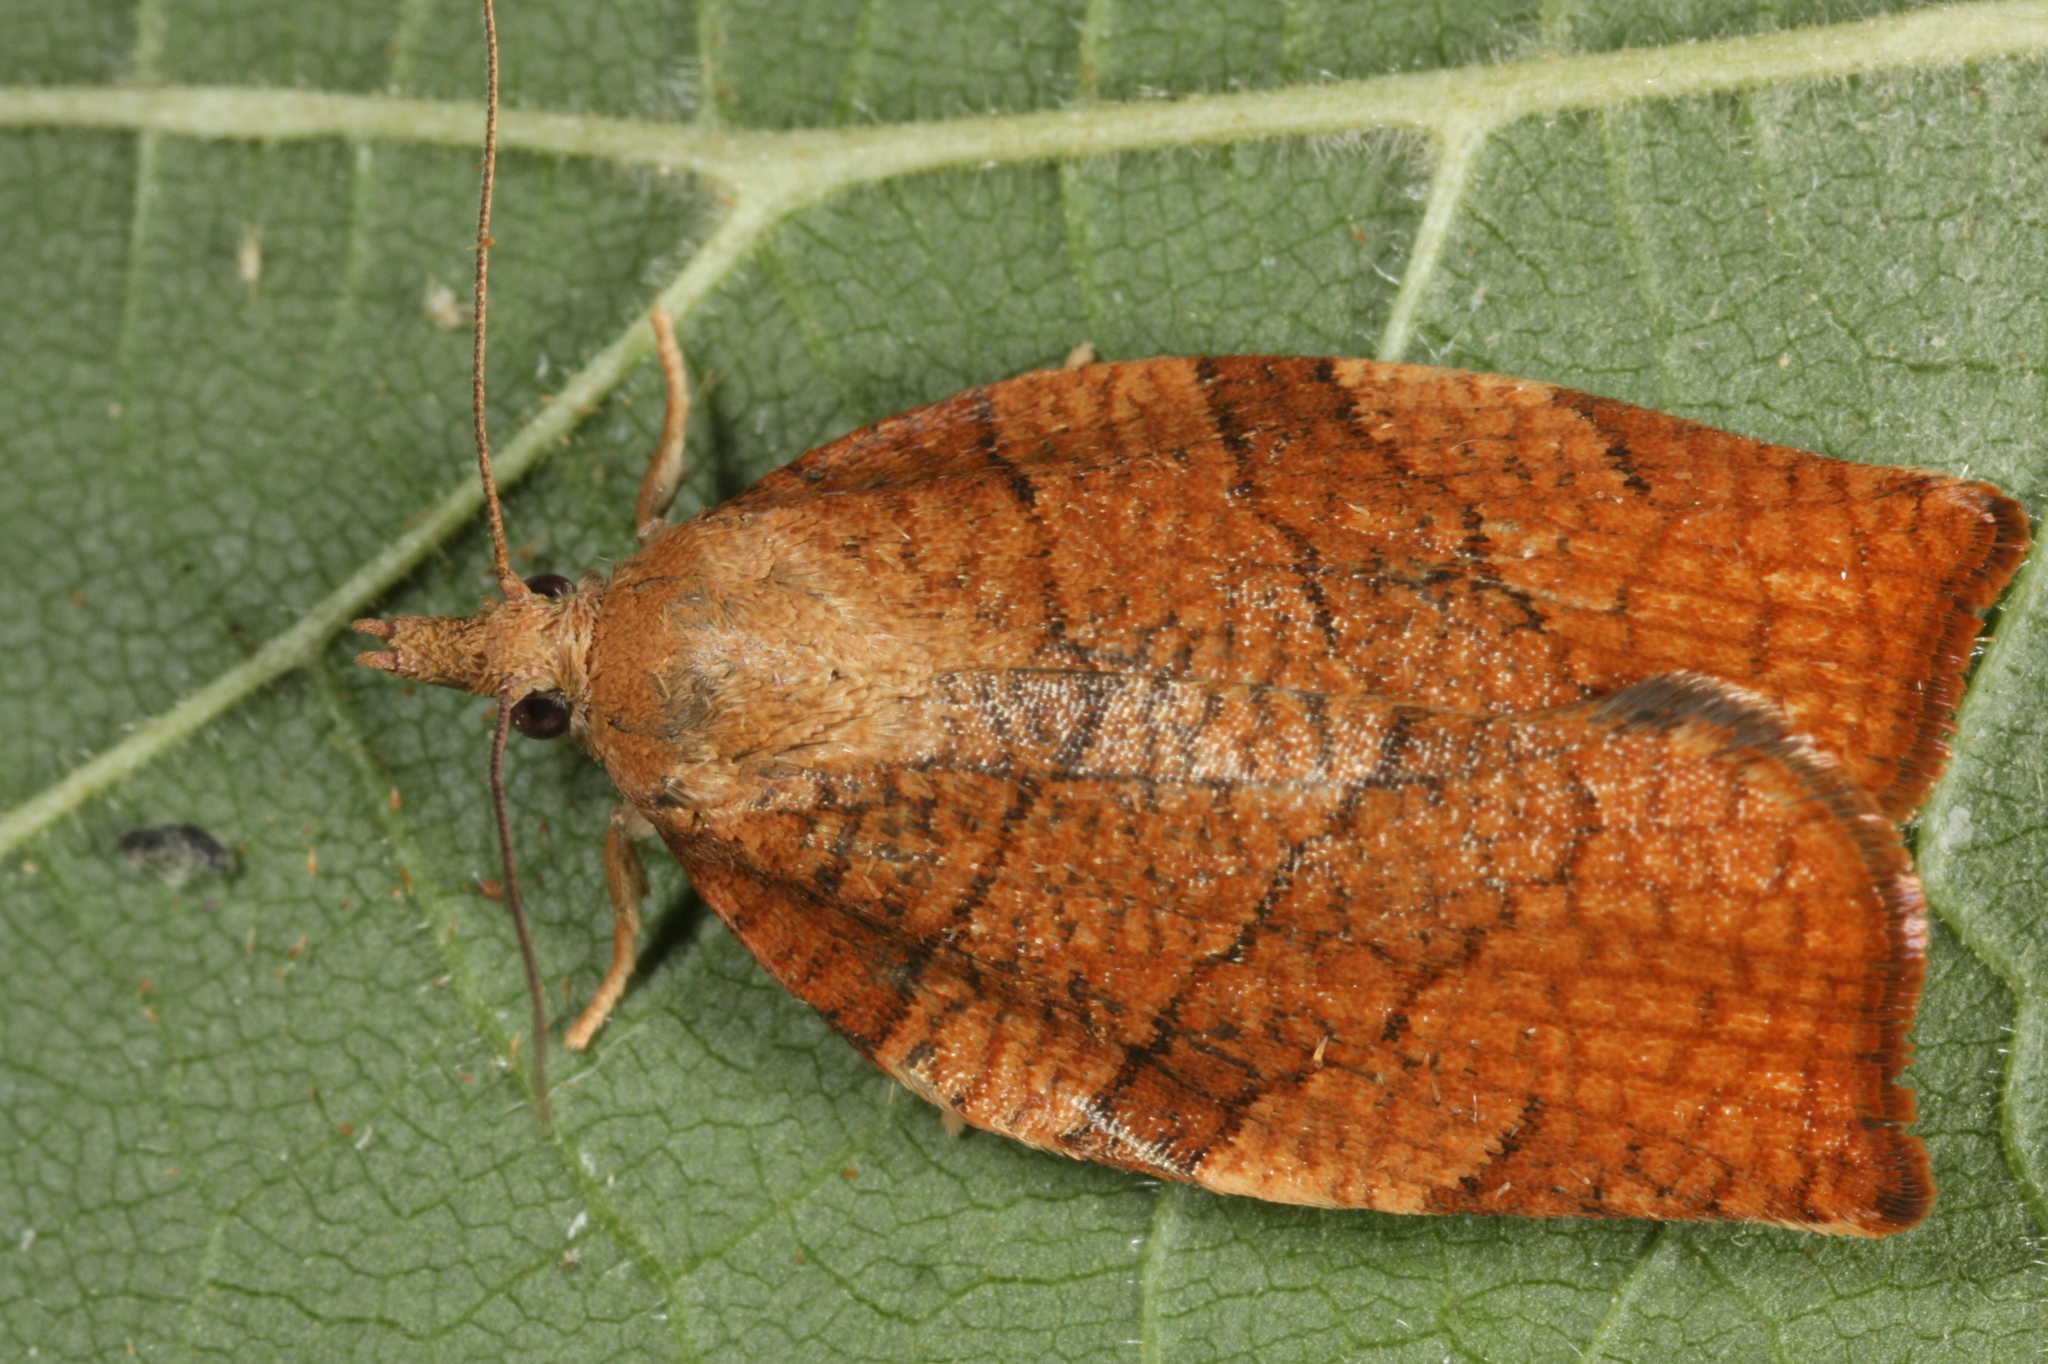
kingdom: Animalia
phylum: Arthropoda
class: Insecta
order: Lepidoptera
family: Tortricidae
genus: Pandemis
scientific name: Pandemis corylana
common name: Chequered fruit-tree tortrix
